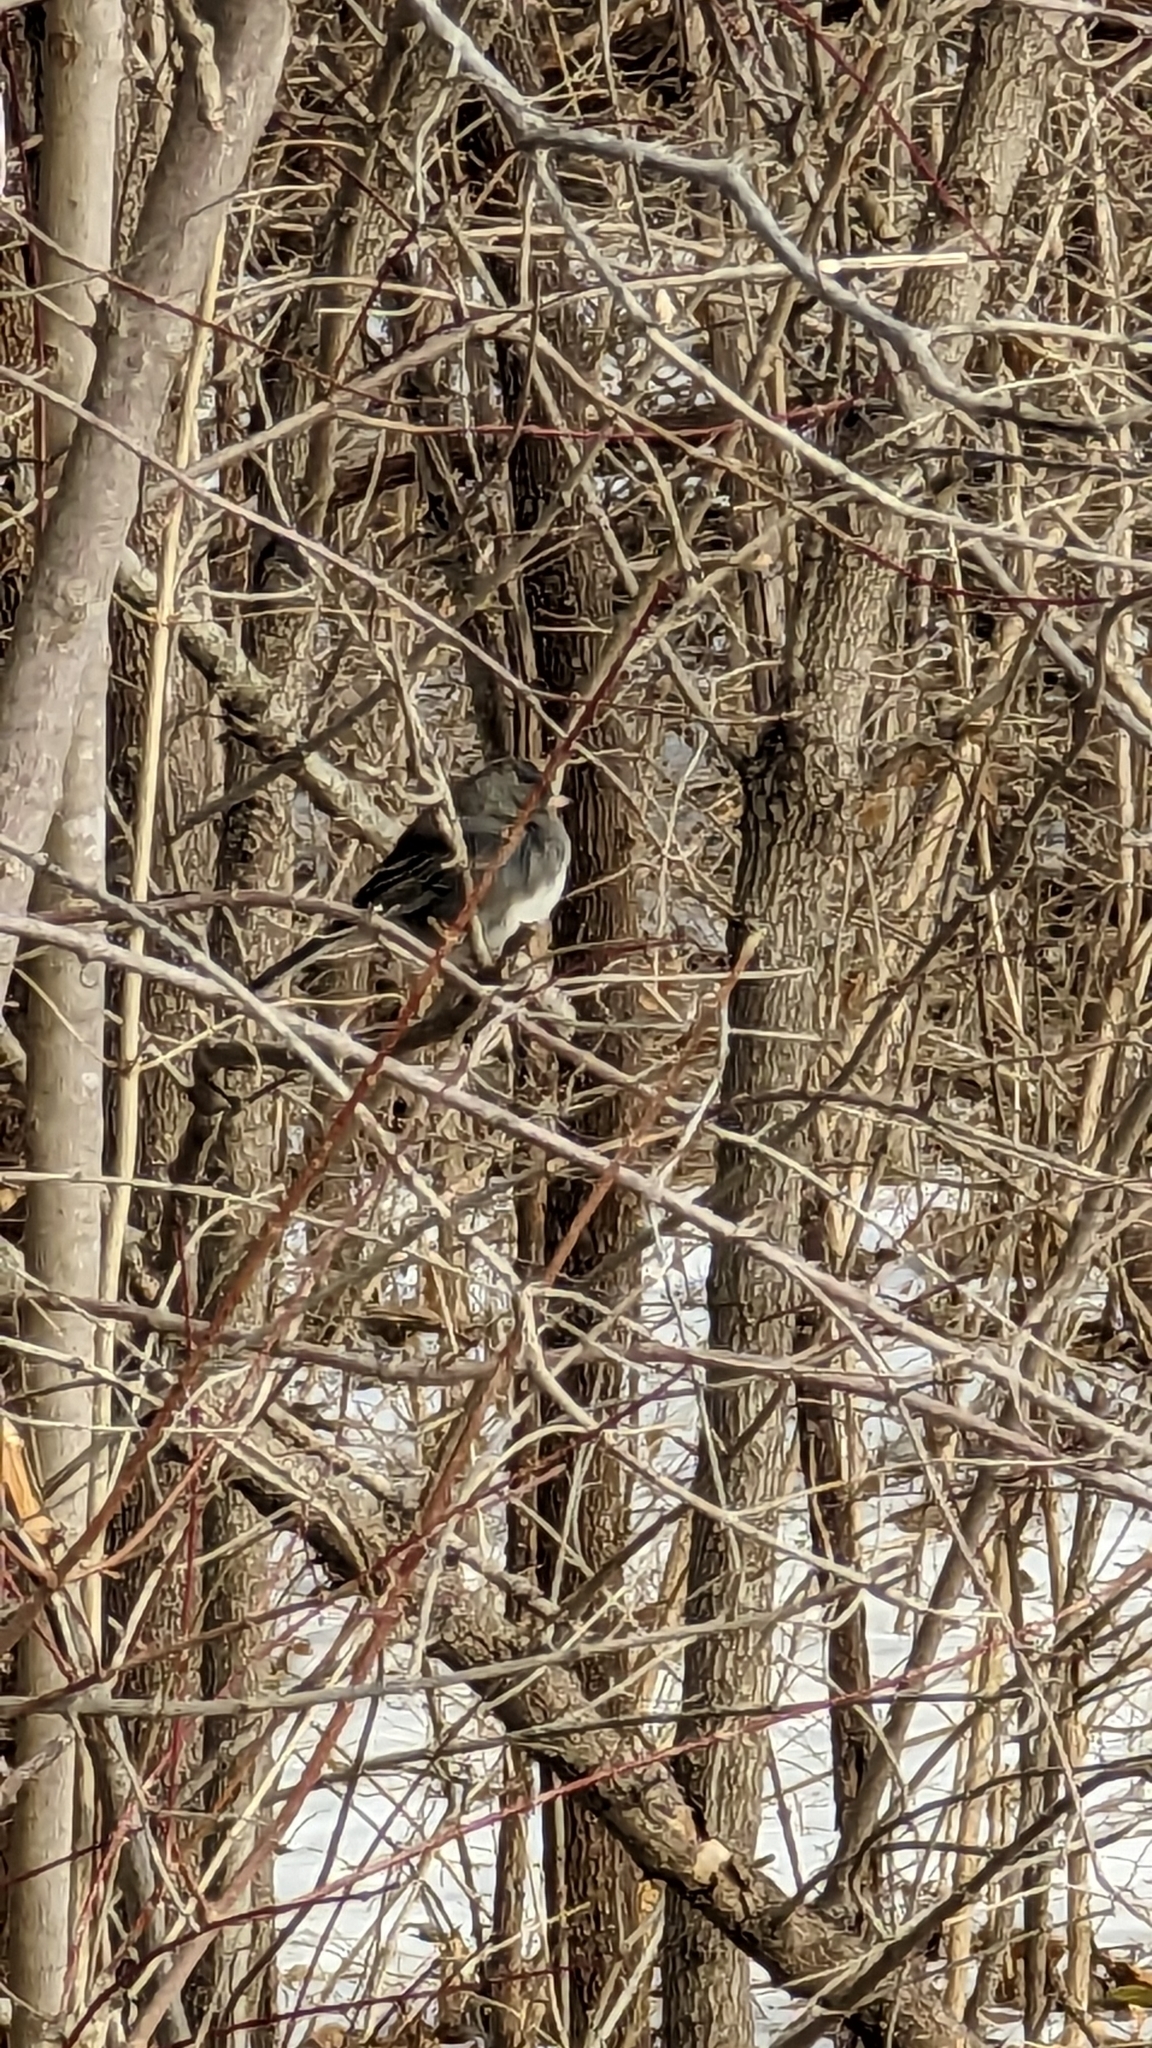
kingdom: Animalia
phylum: Chordata
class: Aves
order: Passeriformes
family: Passerellidae
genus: Junco
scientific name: Junco hyemalis
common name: Dark-eyed junco
